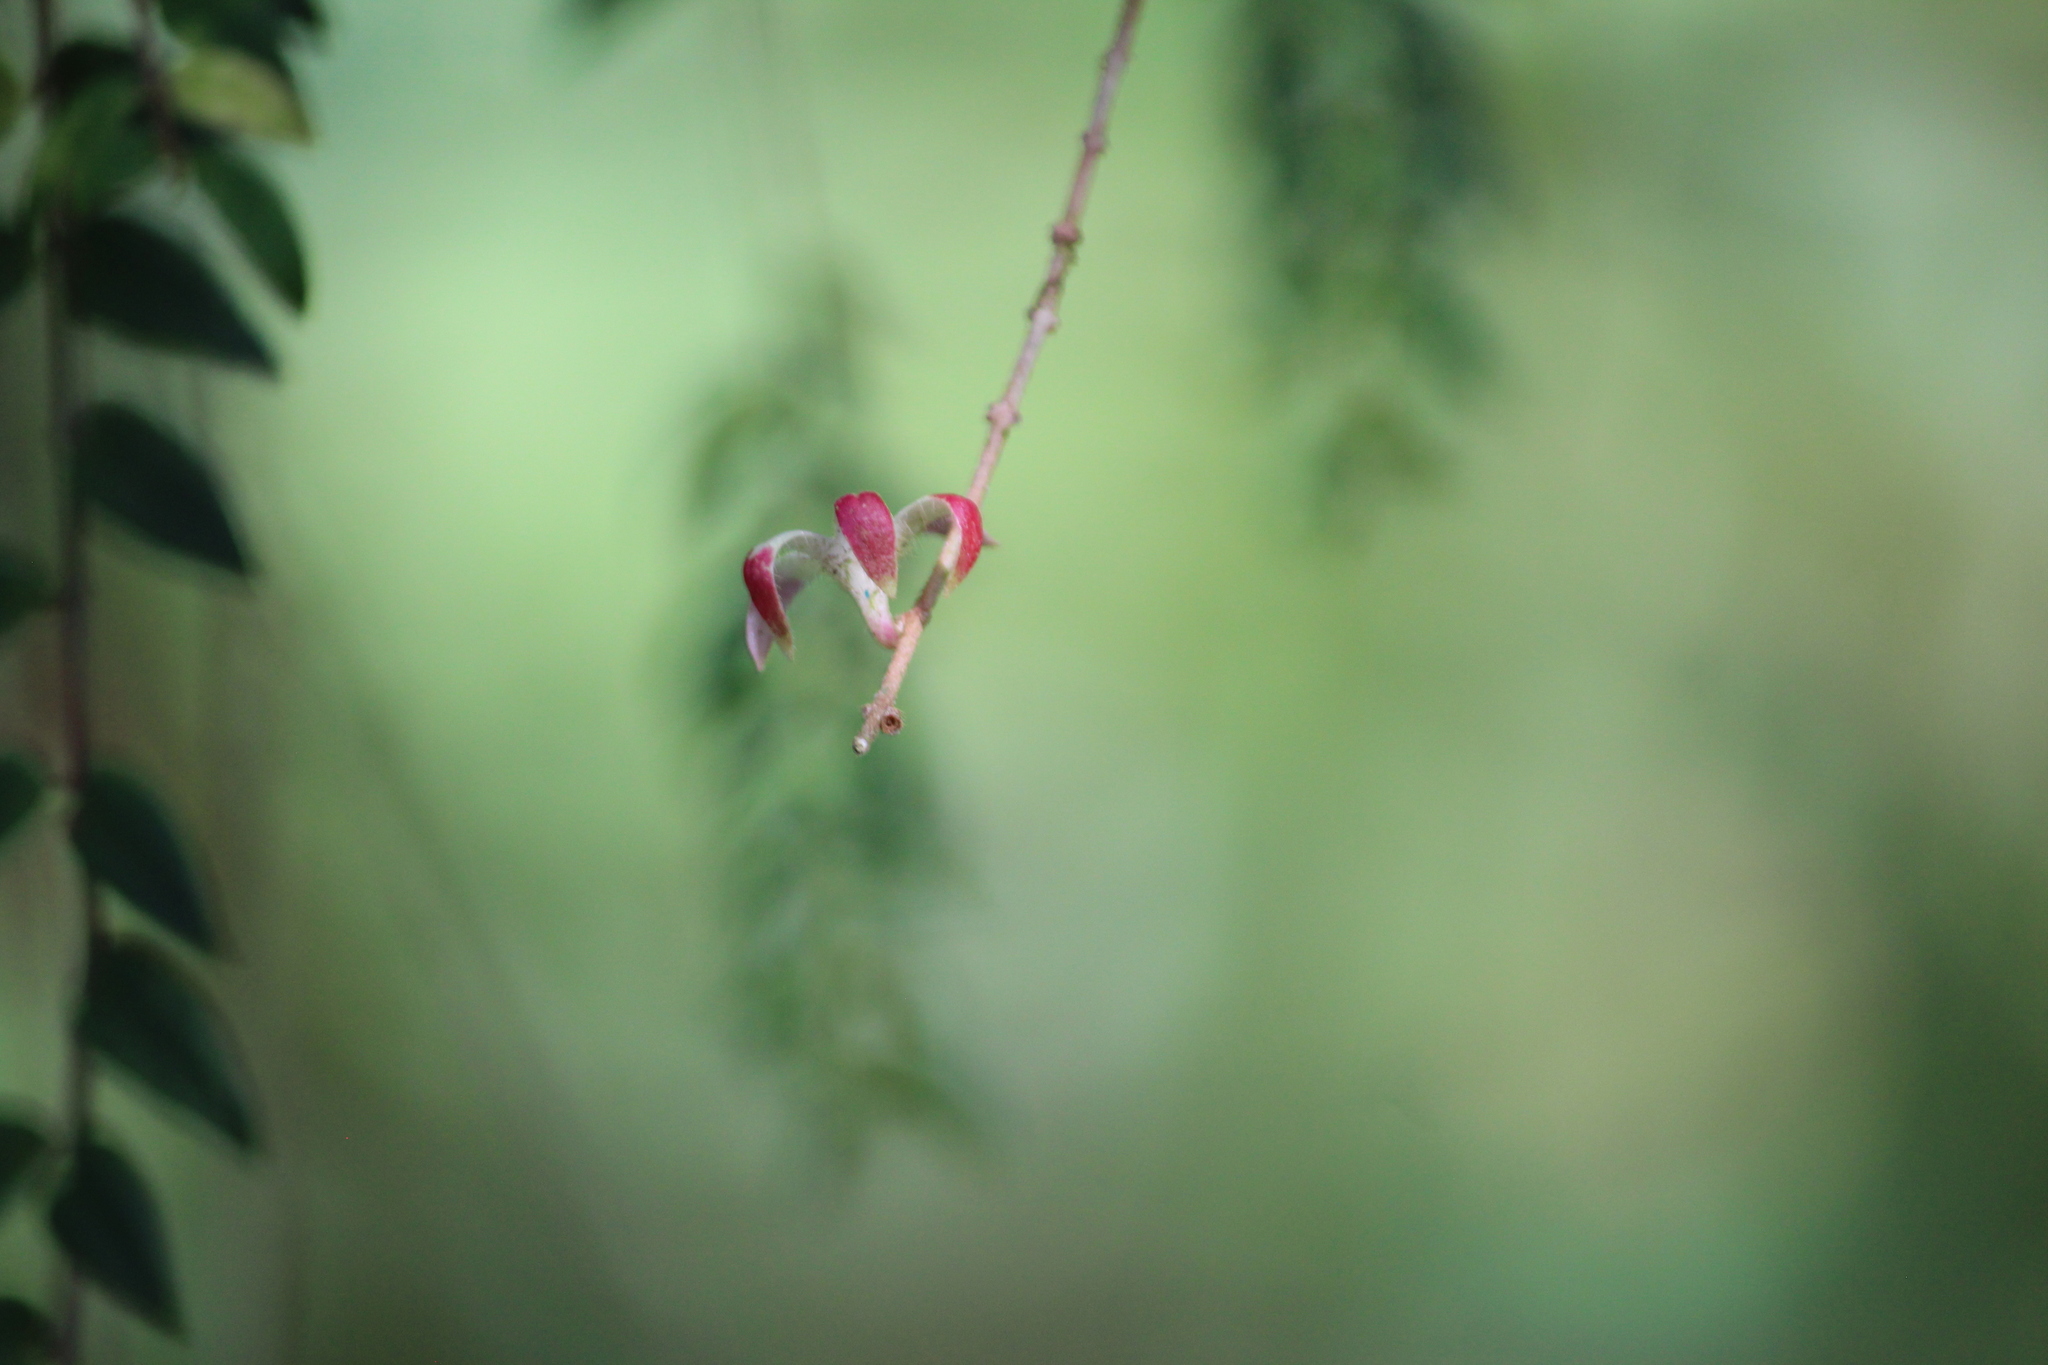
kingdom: Plantae
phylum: Tracheophyta
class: Magnoliopsida
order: Lamiales
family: Gesneriaceae
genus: Columnea
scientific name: Columnea microcalyx
